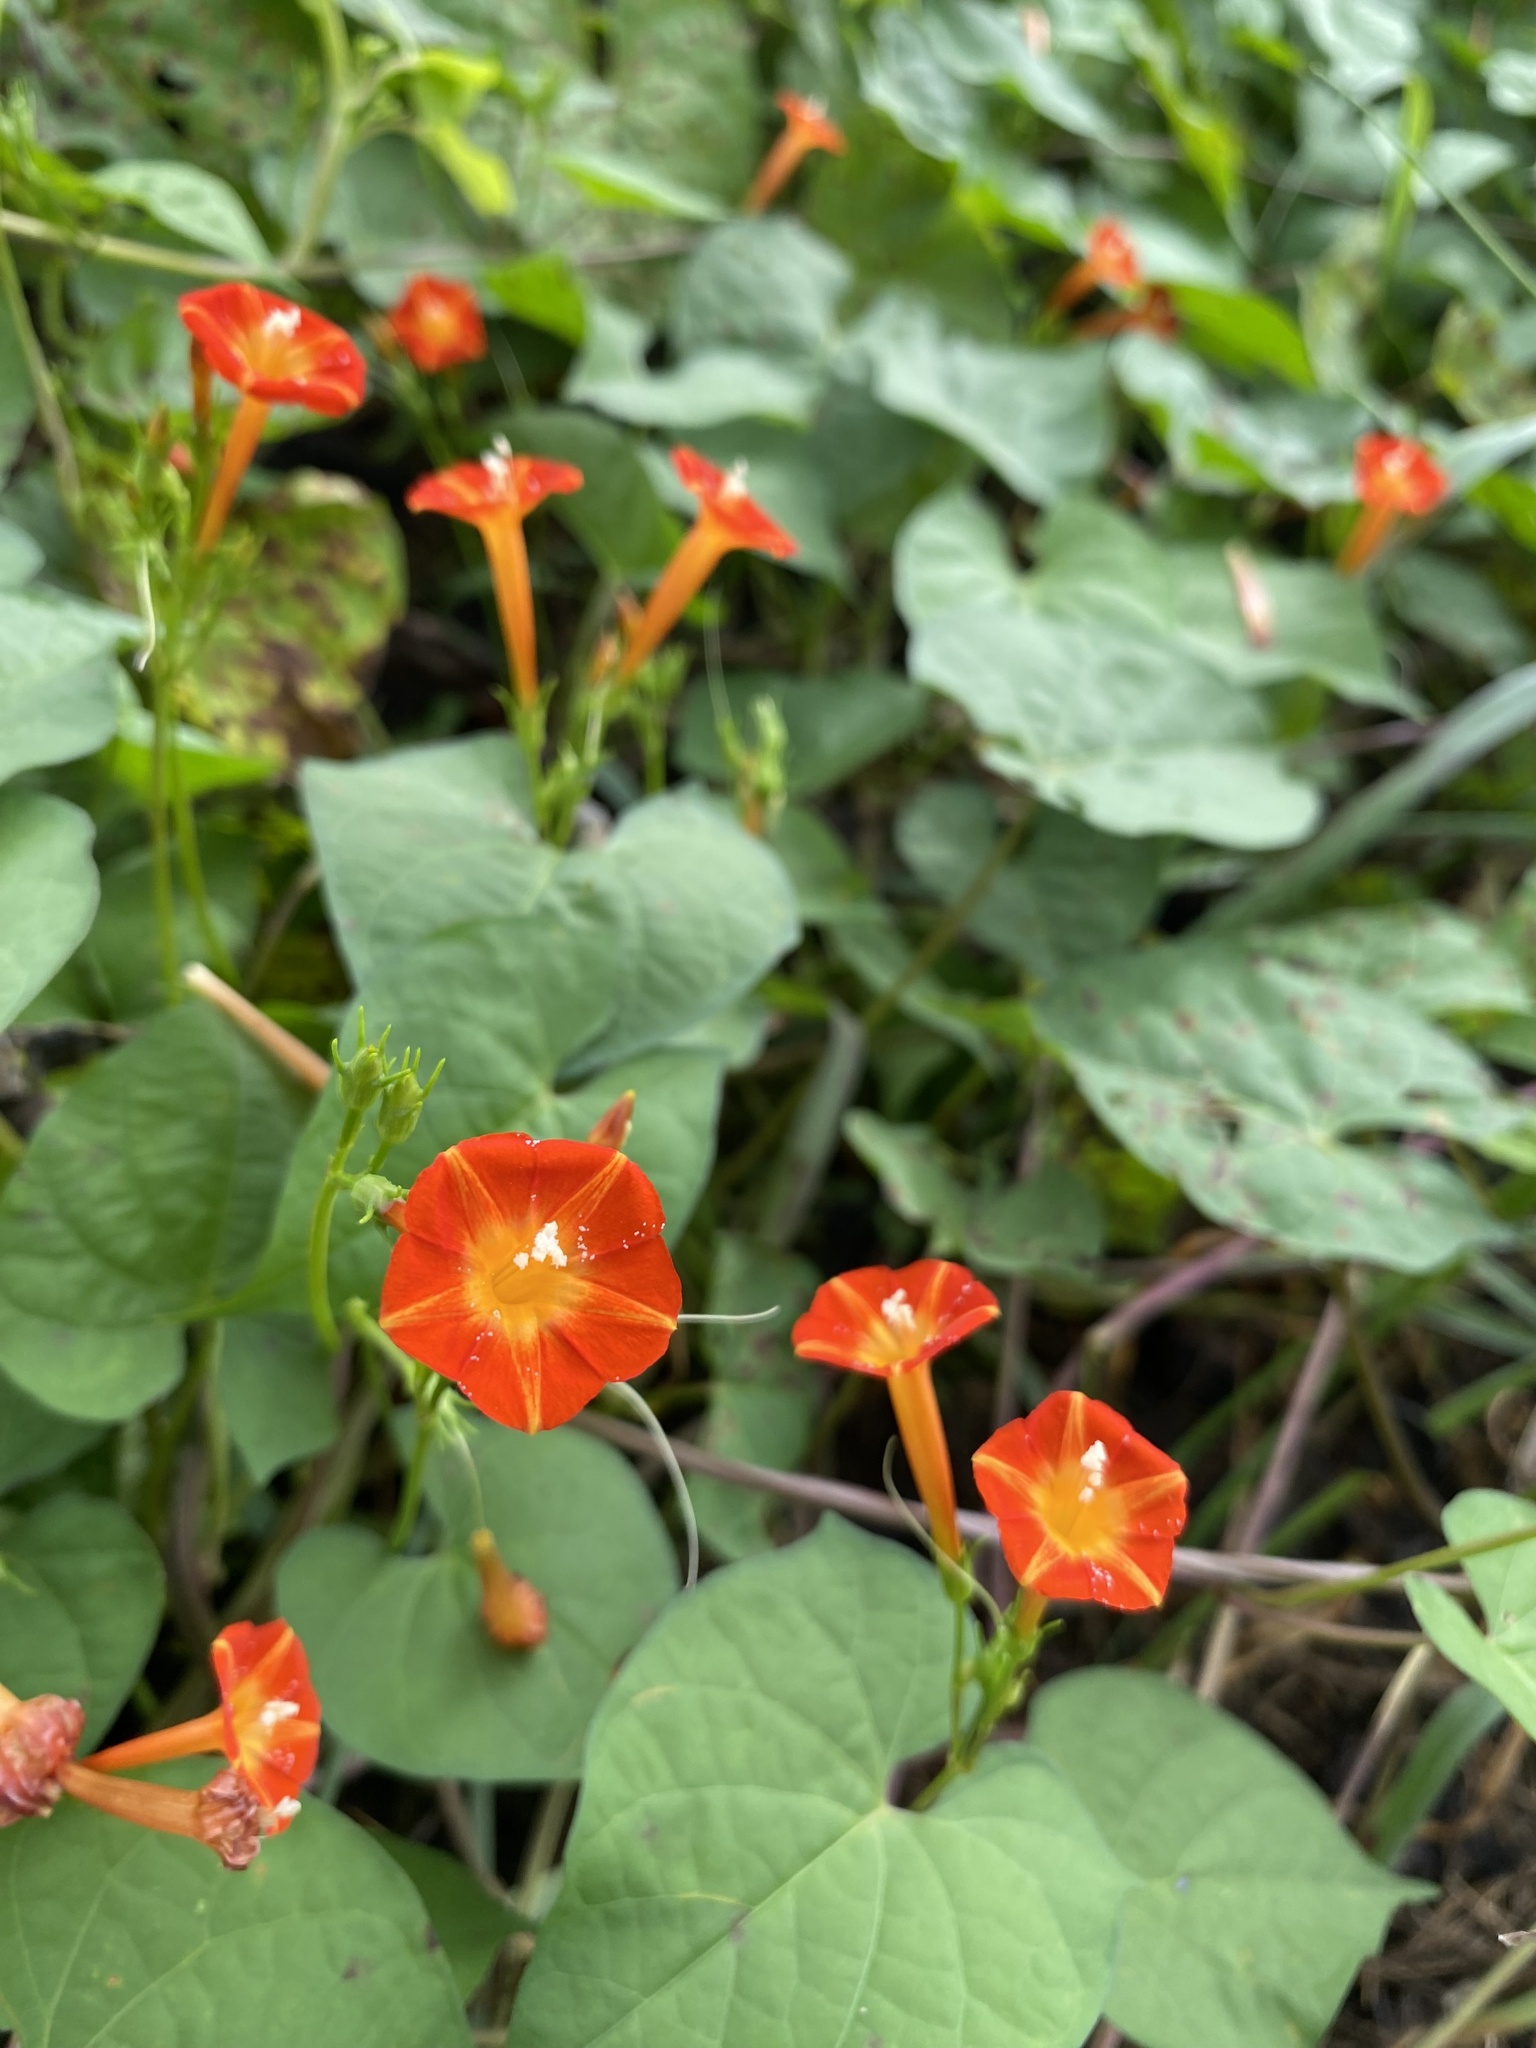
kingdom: Plantae
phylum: Tracheophyta
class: Magnoliopsida
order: Solanales
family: Convolvulaceae
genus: Ipomoea
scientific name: Ipomoea coccinea
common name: Red morning-glory
